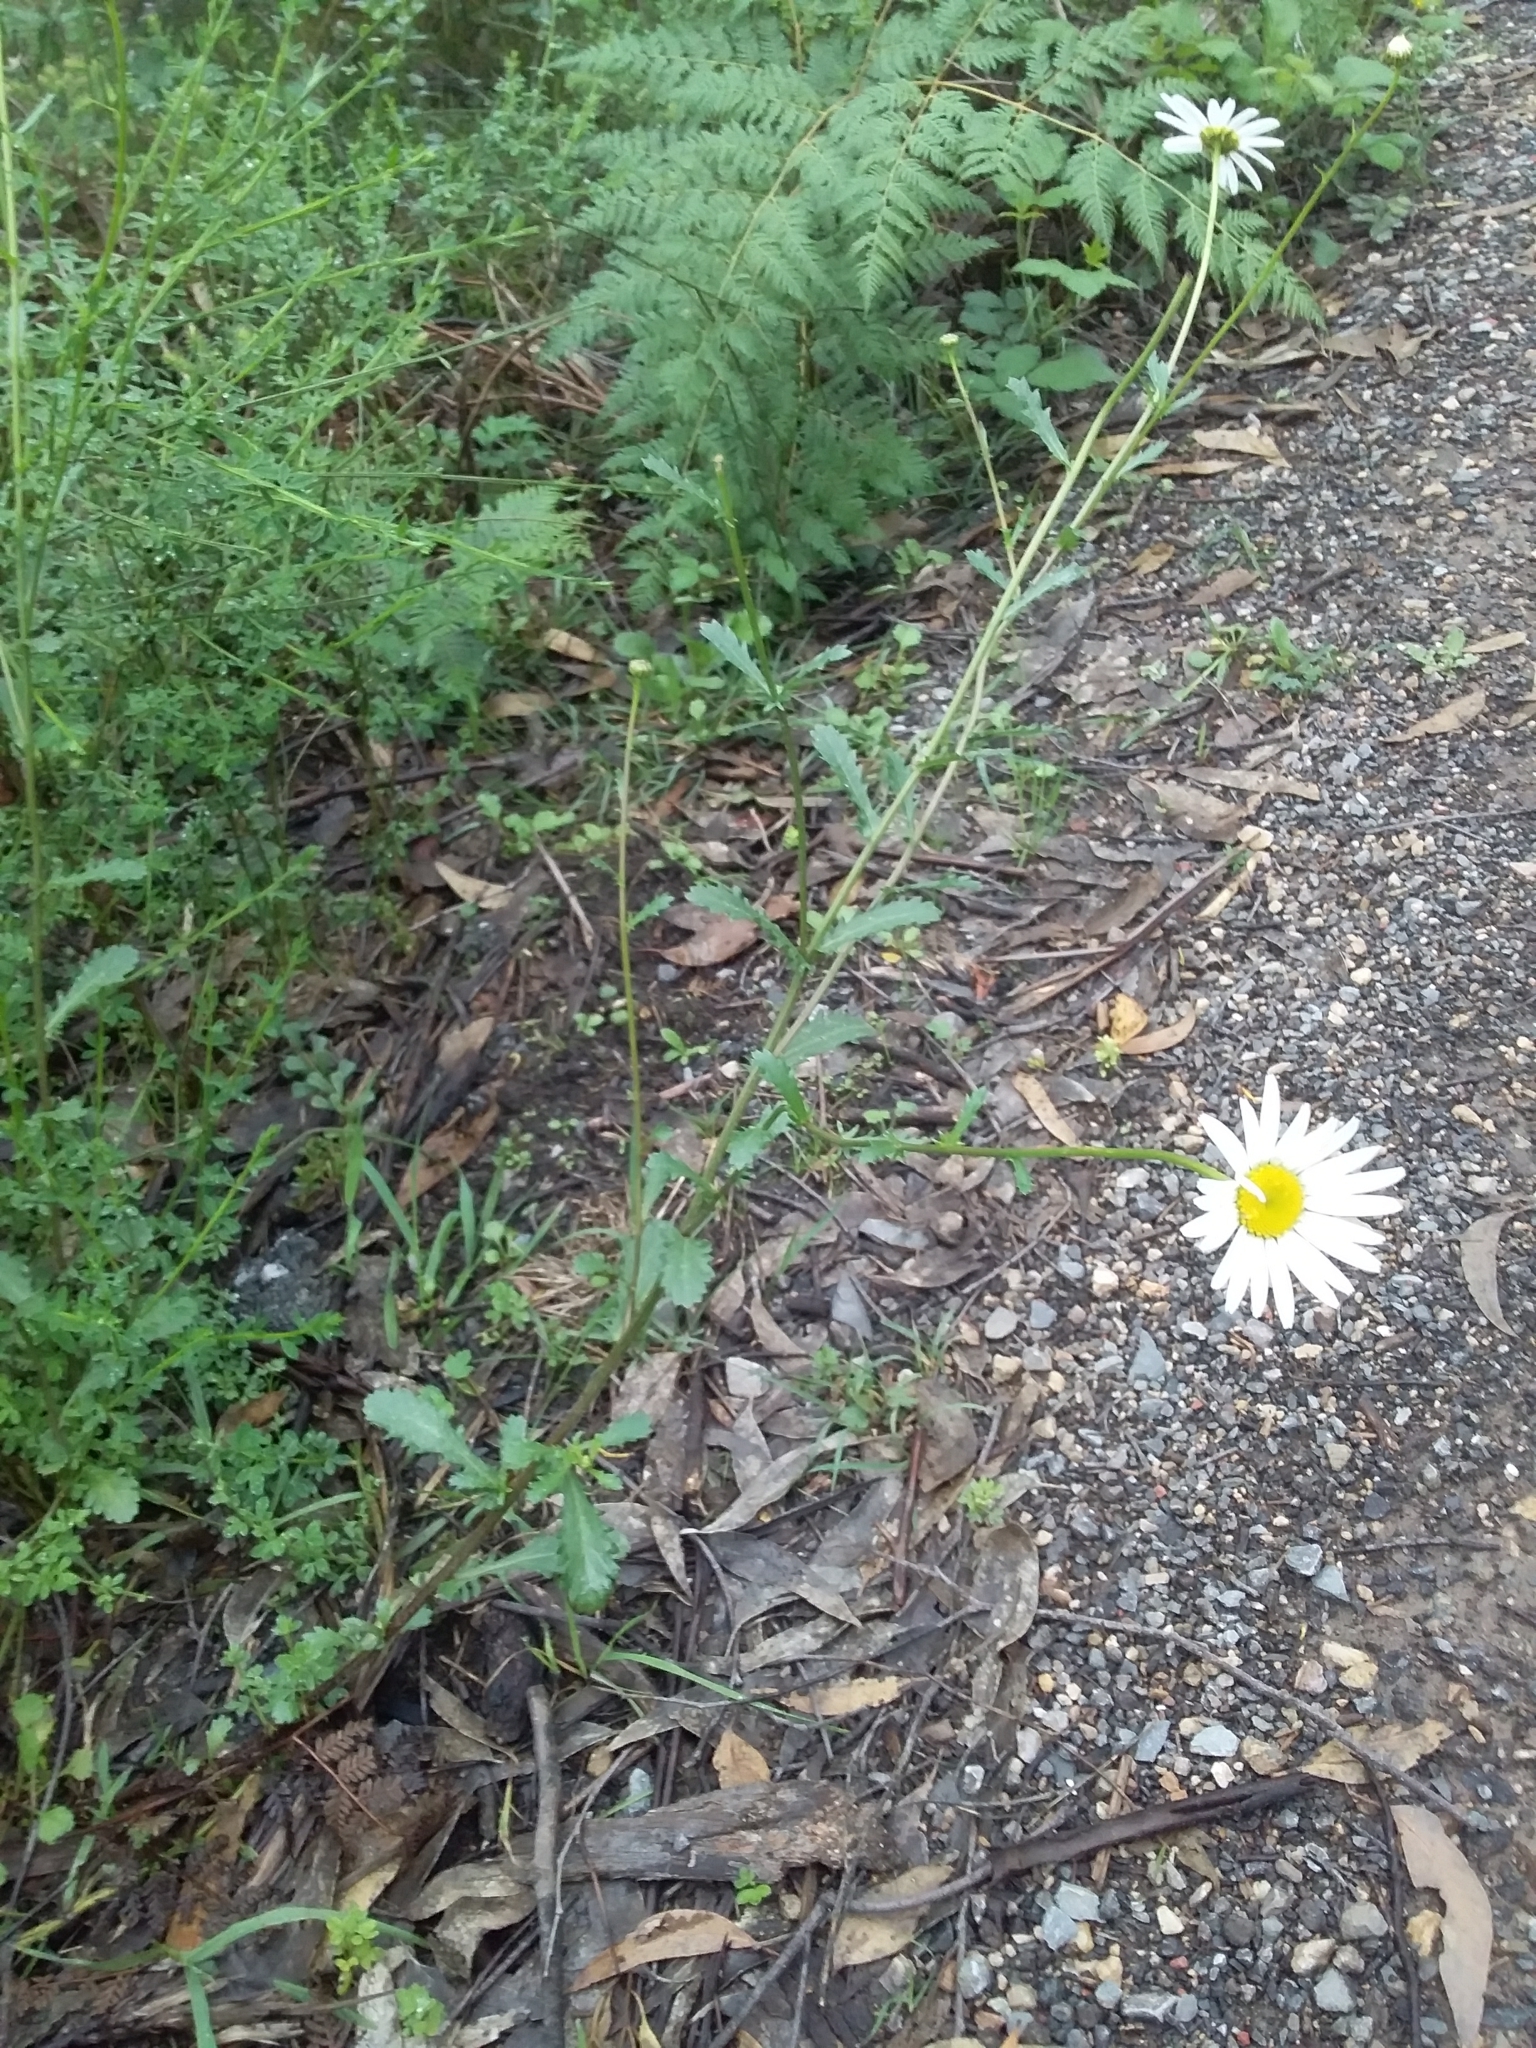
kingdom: Plantae
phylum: Tracheophyta
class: Magnoliopsida
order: Asterales
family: Asteraceae
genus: Leucanthemum
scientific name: Leucanthemum vulgare
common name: Oxeye daisy
